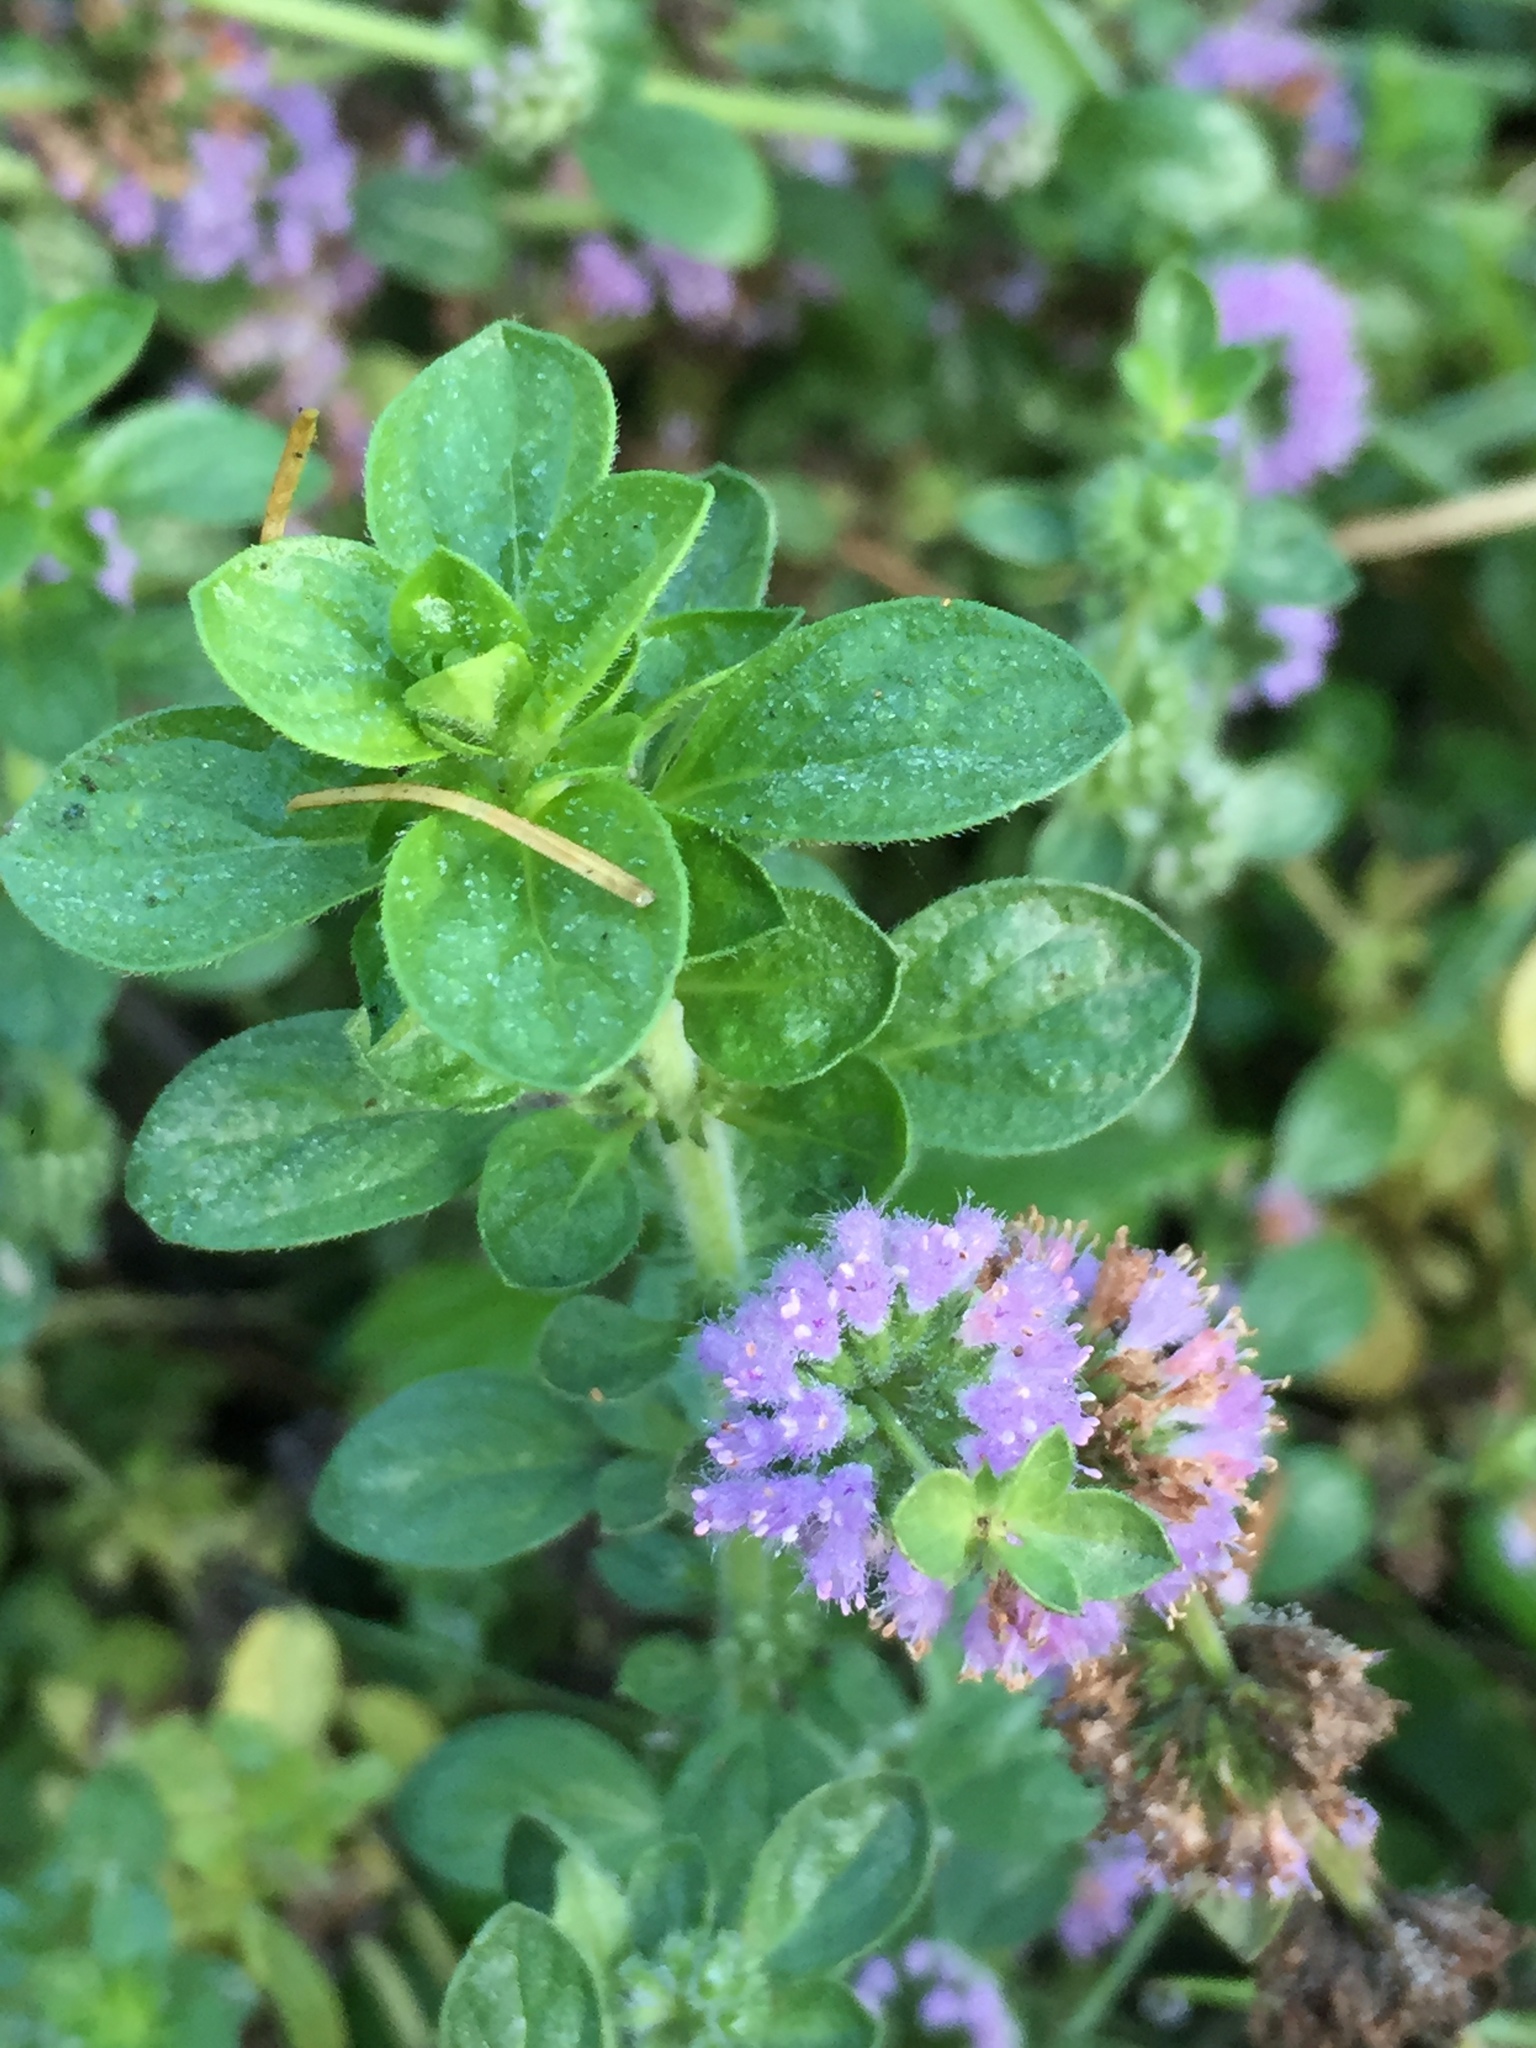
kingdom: Plantae
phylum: Tracheophyta
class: Magnoliopsida
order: Lamiales
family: Lamiaceae
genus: Mentha
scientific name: Mentha pulegium
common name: Pennyroyal
